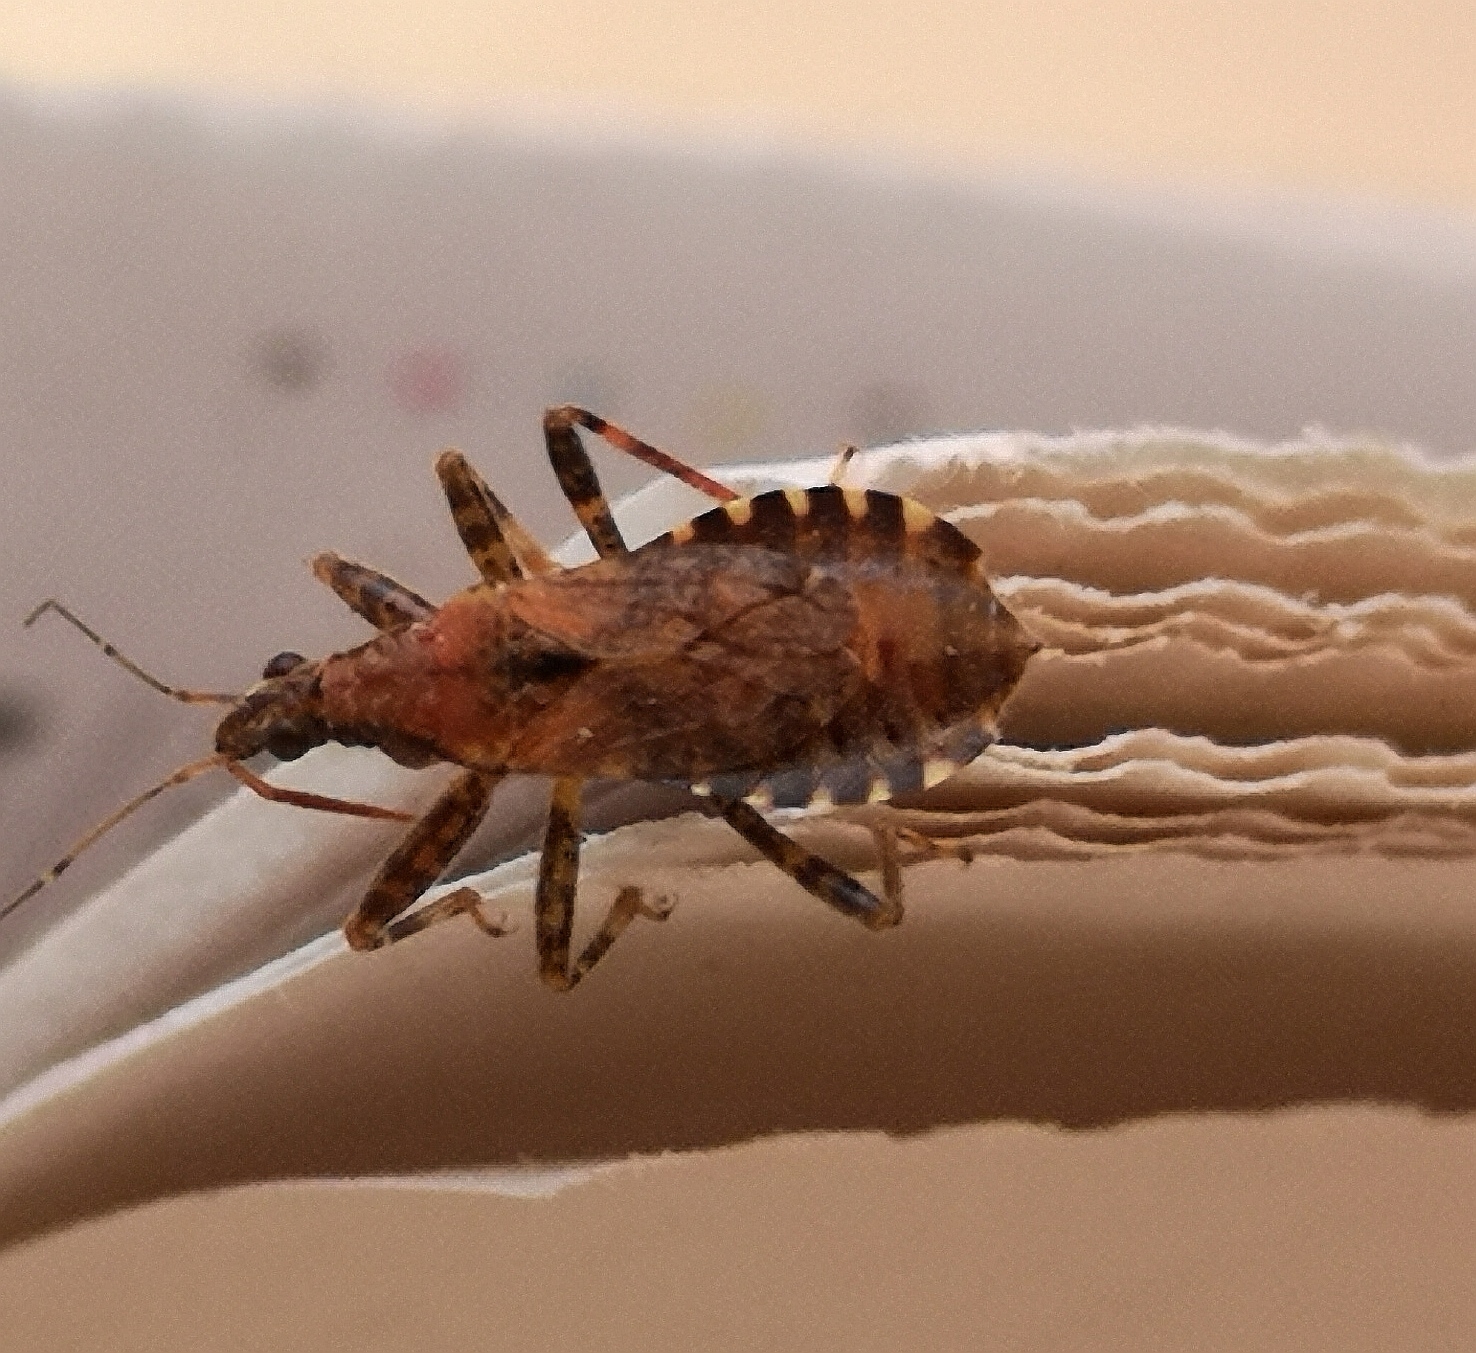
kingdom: Animalia
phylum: Arthropoda
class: Insecta
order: Hemiptera
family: Nabidae
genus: Himacerus
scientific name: Himacerus mirmicoides
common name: Ant damsel bug
